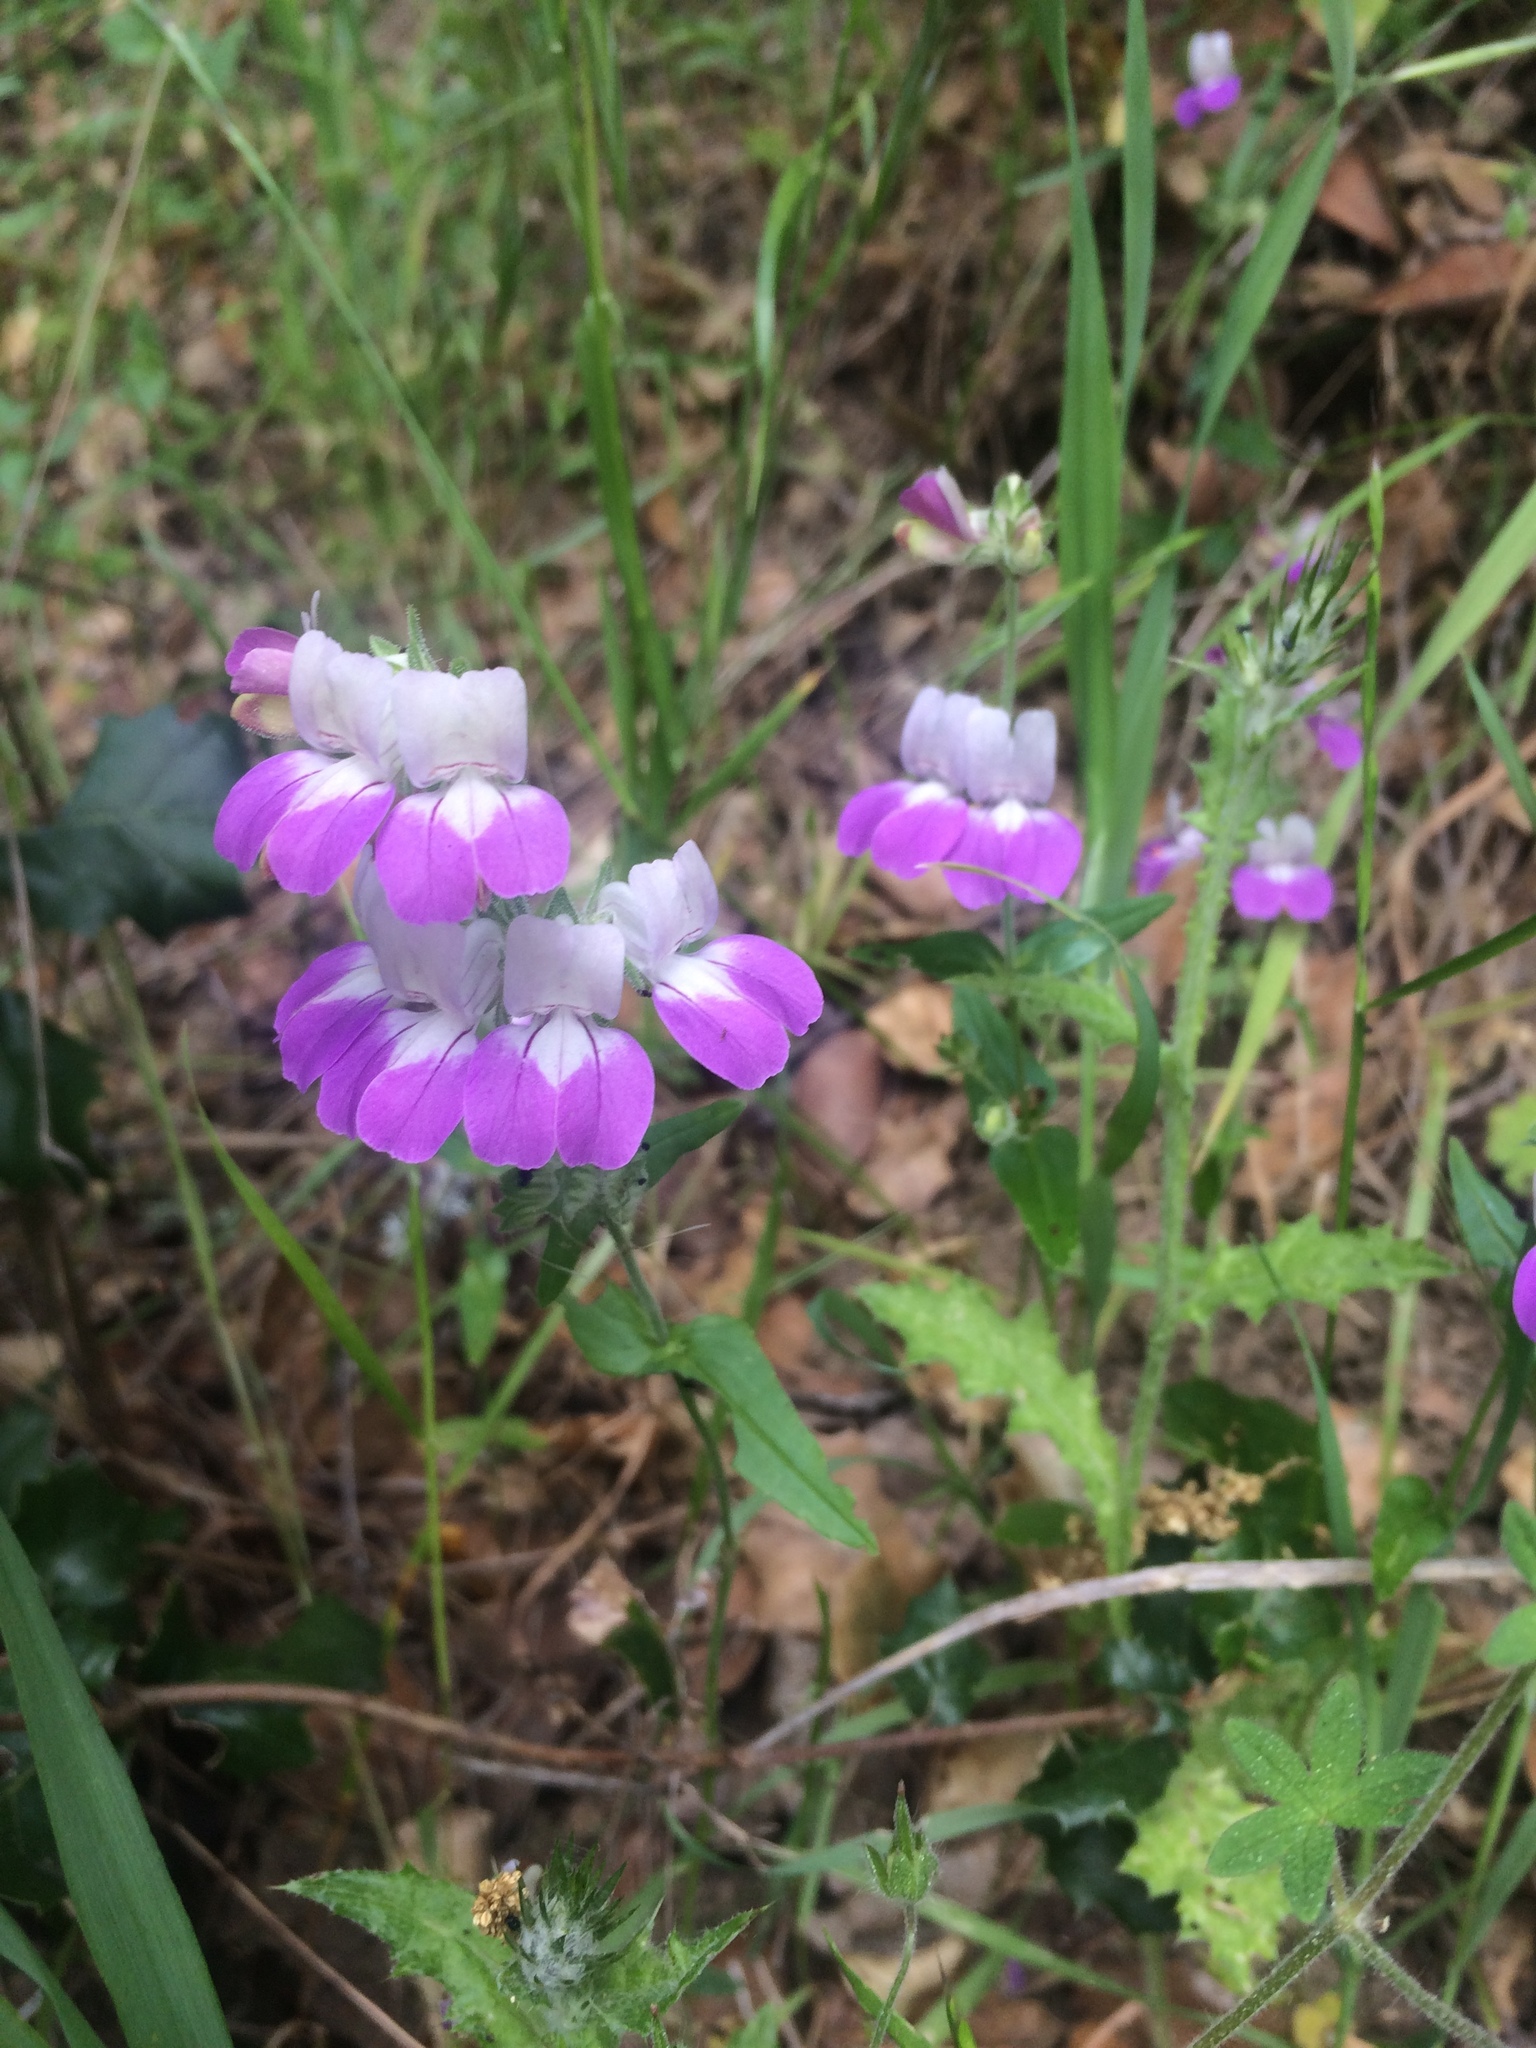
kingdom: Plantae
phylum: Tracheophyta
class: Magnoliopsida
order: Lamiales
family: Plantaginaceae
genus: Collinsia
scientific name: Collinsia heterophylla
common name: Chinese-houses
